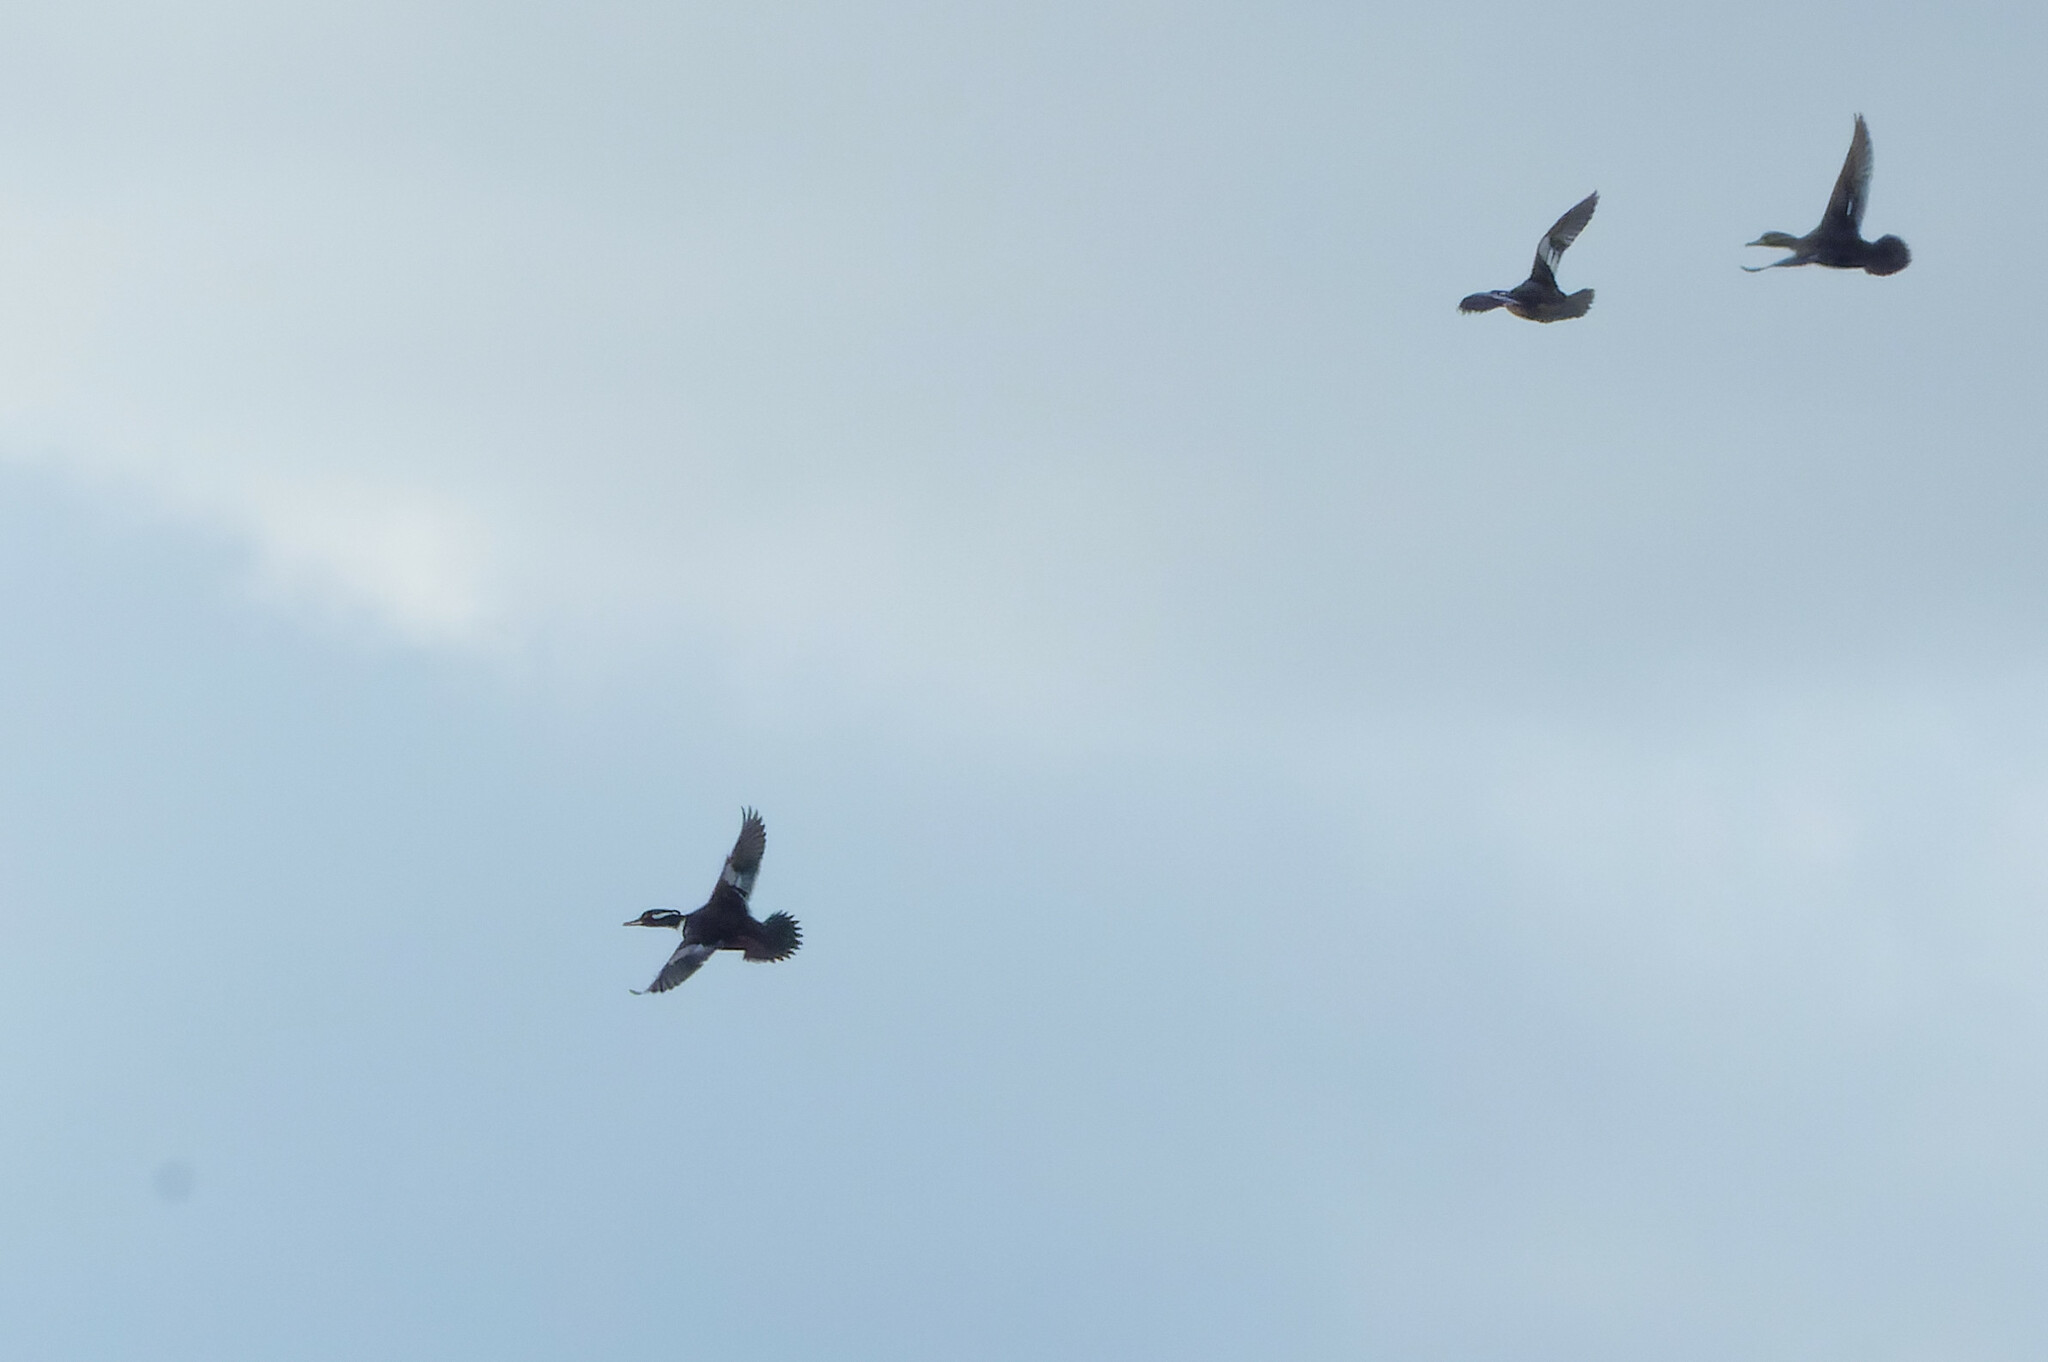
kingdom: Animalia
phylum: Chordata
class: Aves
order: Anseriformes
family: Anatidae
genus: Lophodytes
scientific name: Lophodytes cucullatus
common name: Hooded merganser
